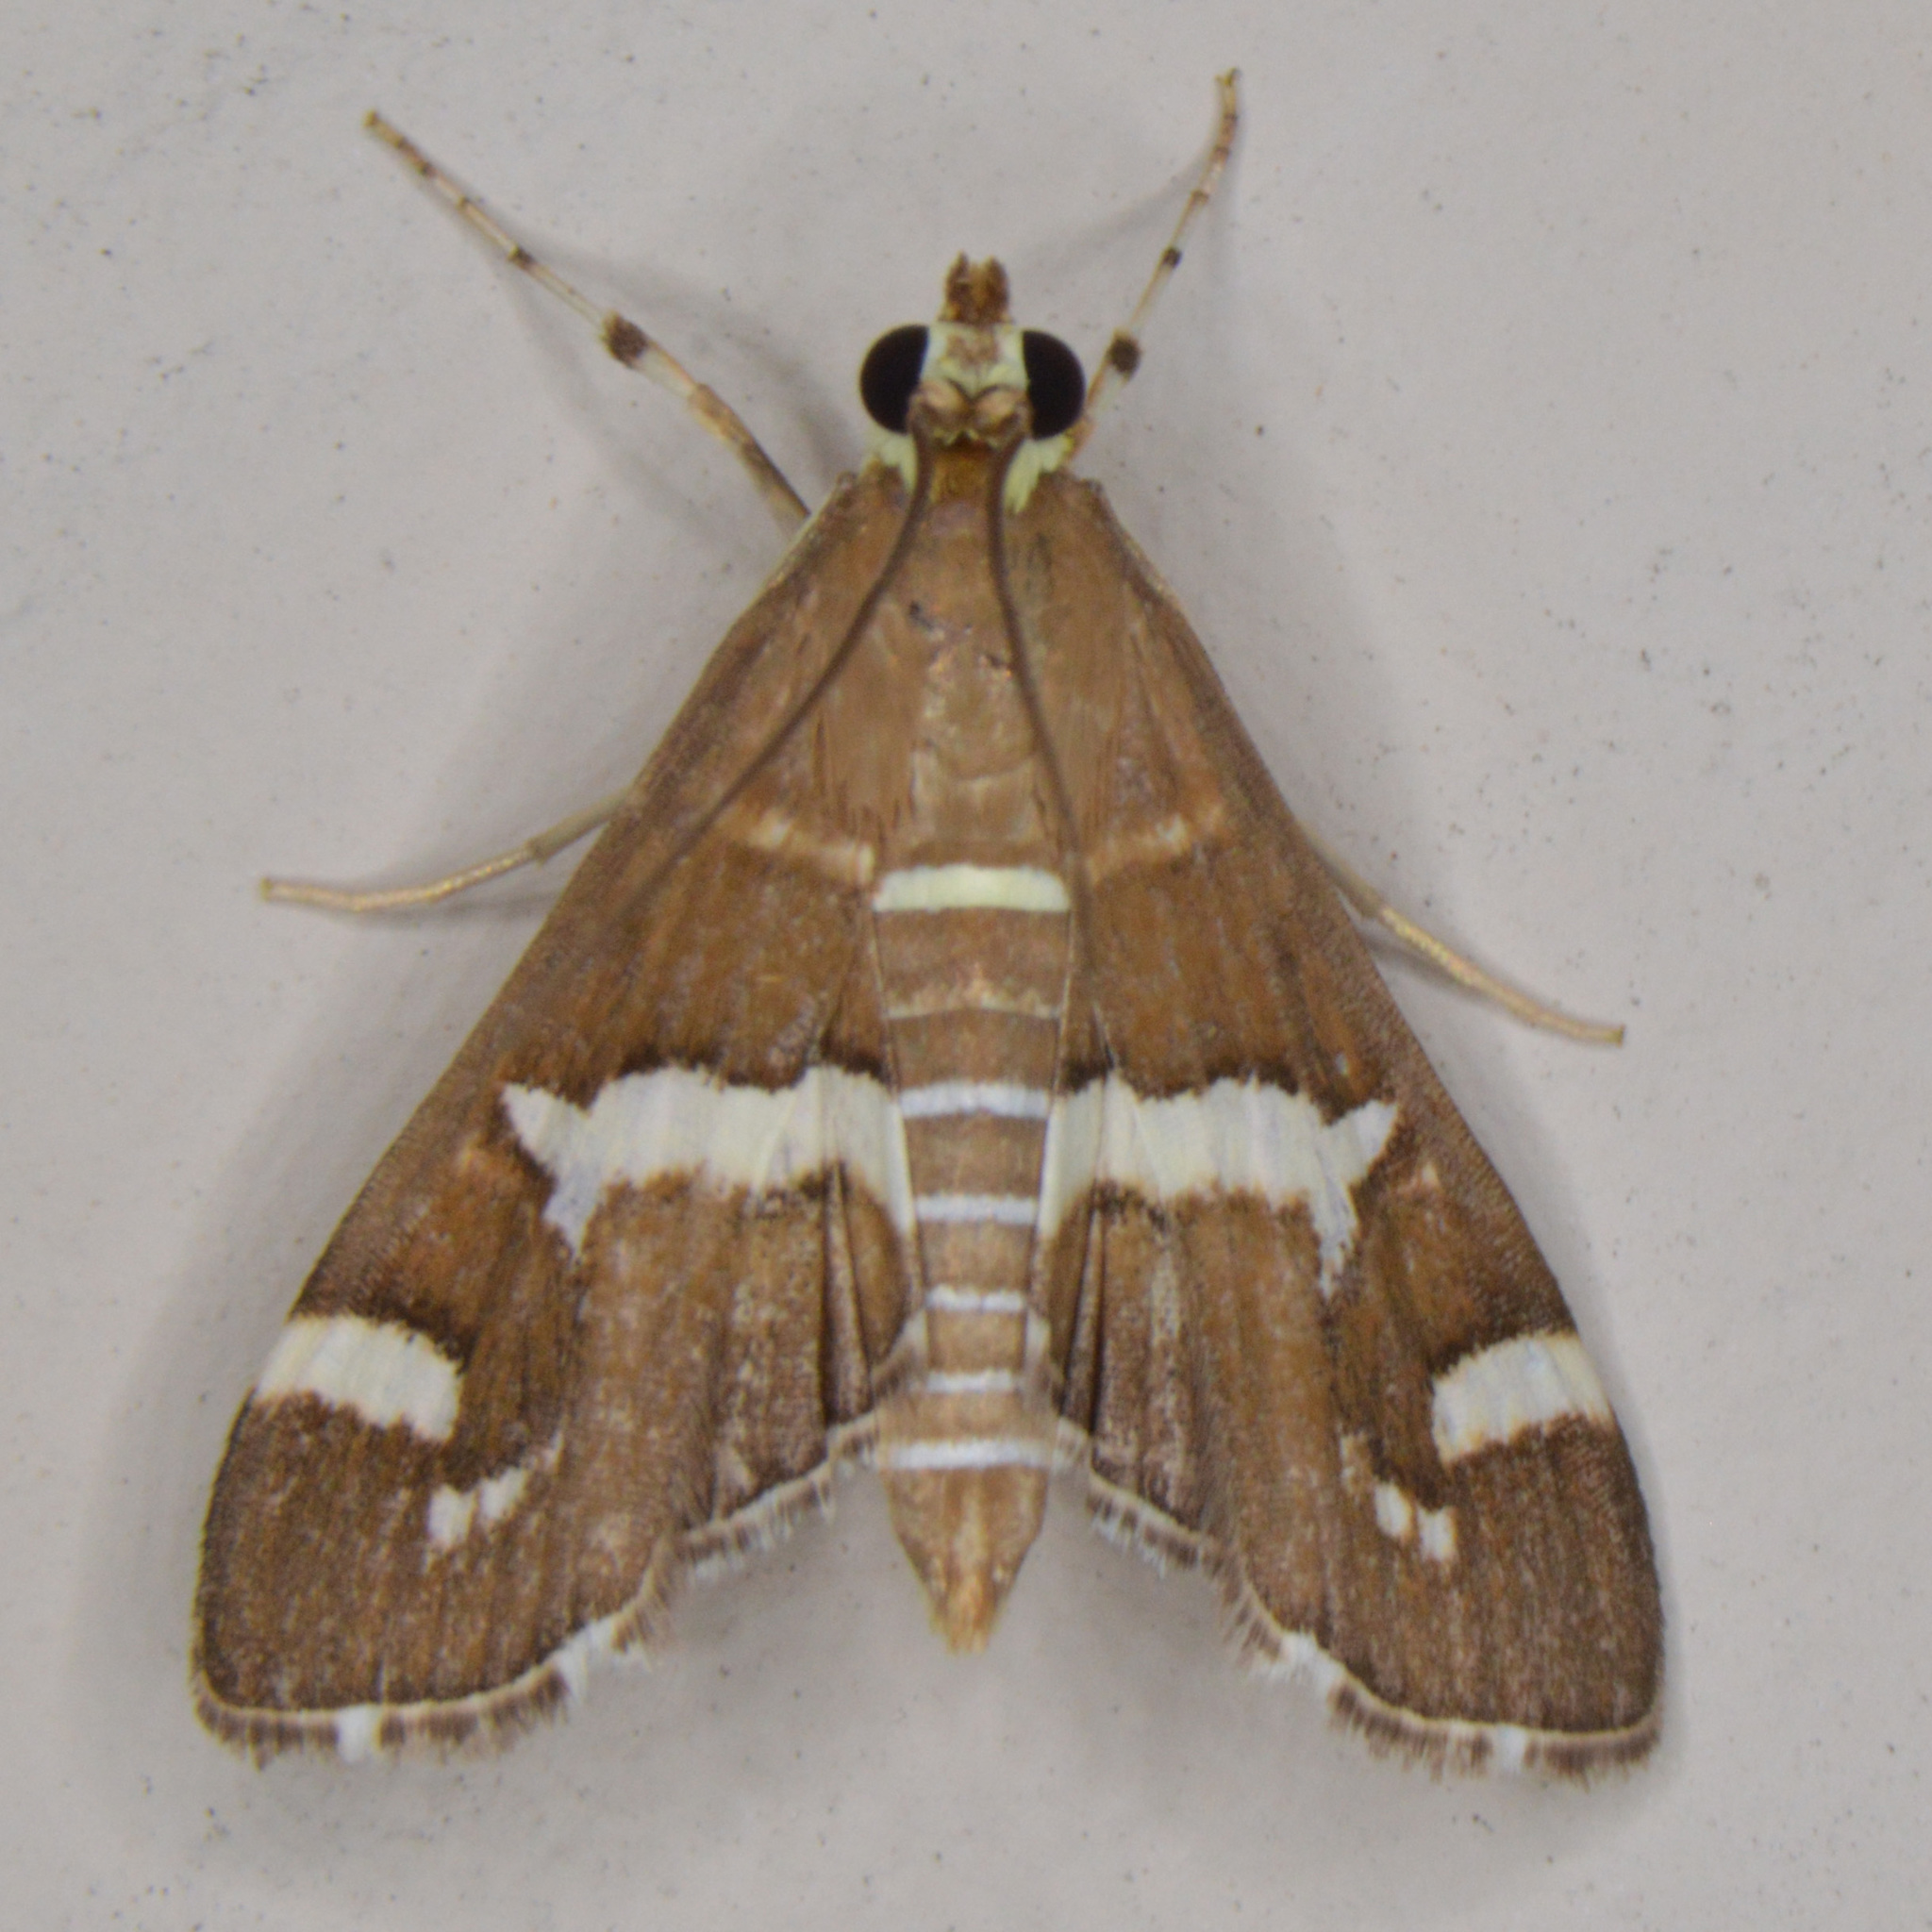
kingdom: Animalia
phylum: Arthropoda
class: Insecta
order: Lepidoptera
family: Crambidae
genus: Spoladea
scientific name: Spoladea recurvalis
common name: Beet webworm moth
